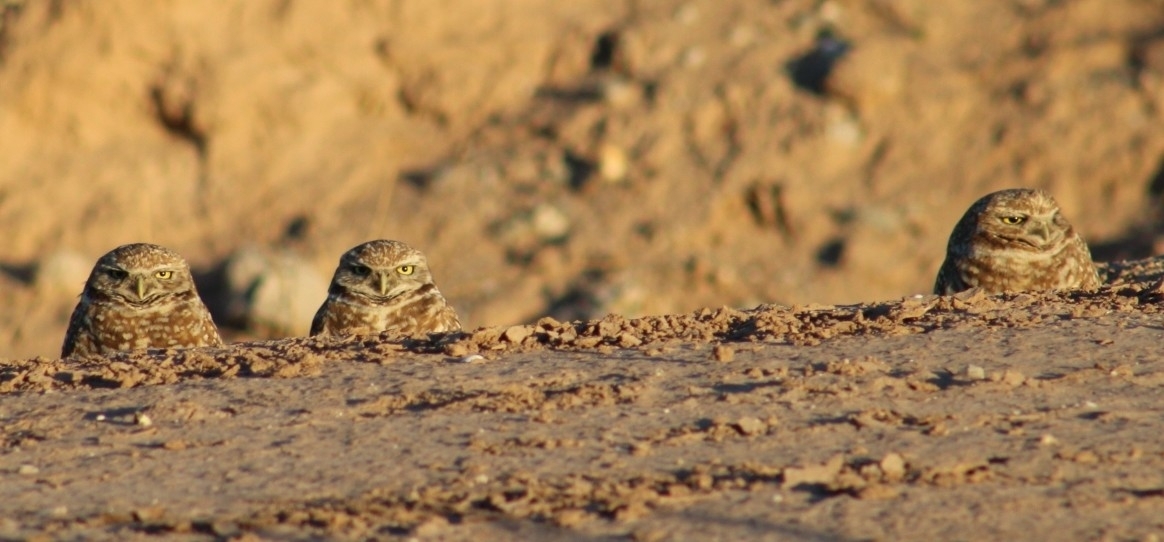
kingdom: Animalia
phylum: Chordata
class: Aves
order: Strigiformes
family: Strigidae
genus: Athene
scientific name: Athene cunicularia
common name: Burrowing owl
